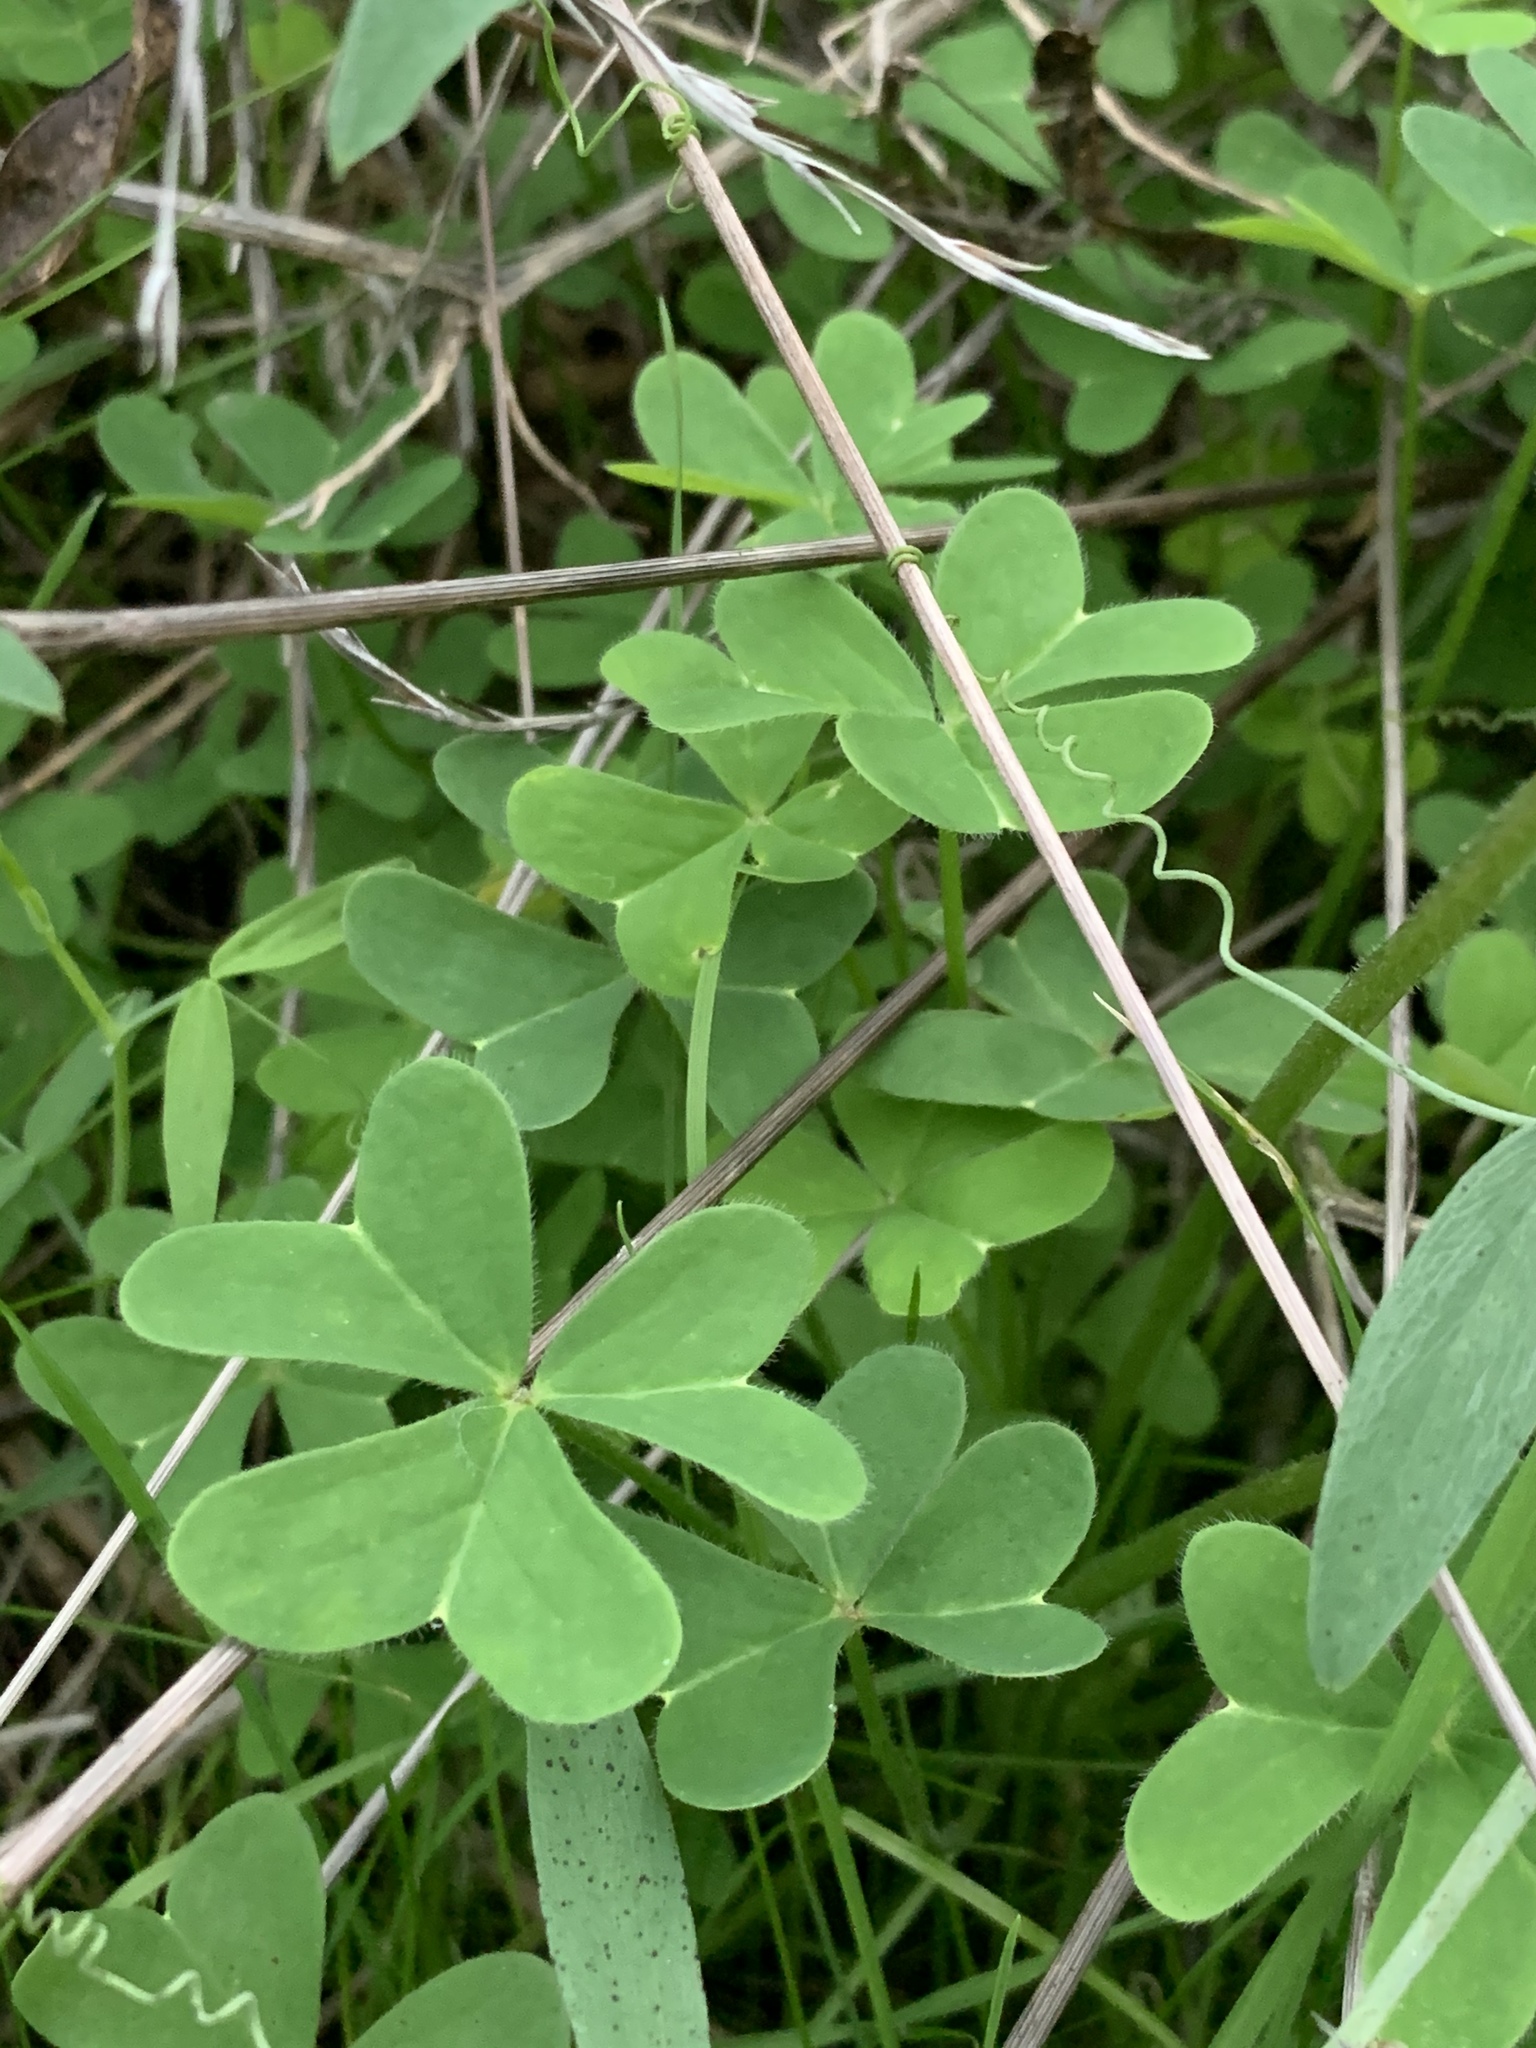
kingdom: Plantae
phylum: Tracheophyta
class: Magnoliopsida
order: Oxalidales
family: Oxalidaceae
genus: Oxalis
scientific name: Oxalis pes-caprae
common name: Bermuda-buttercup
